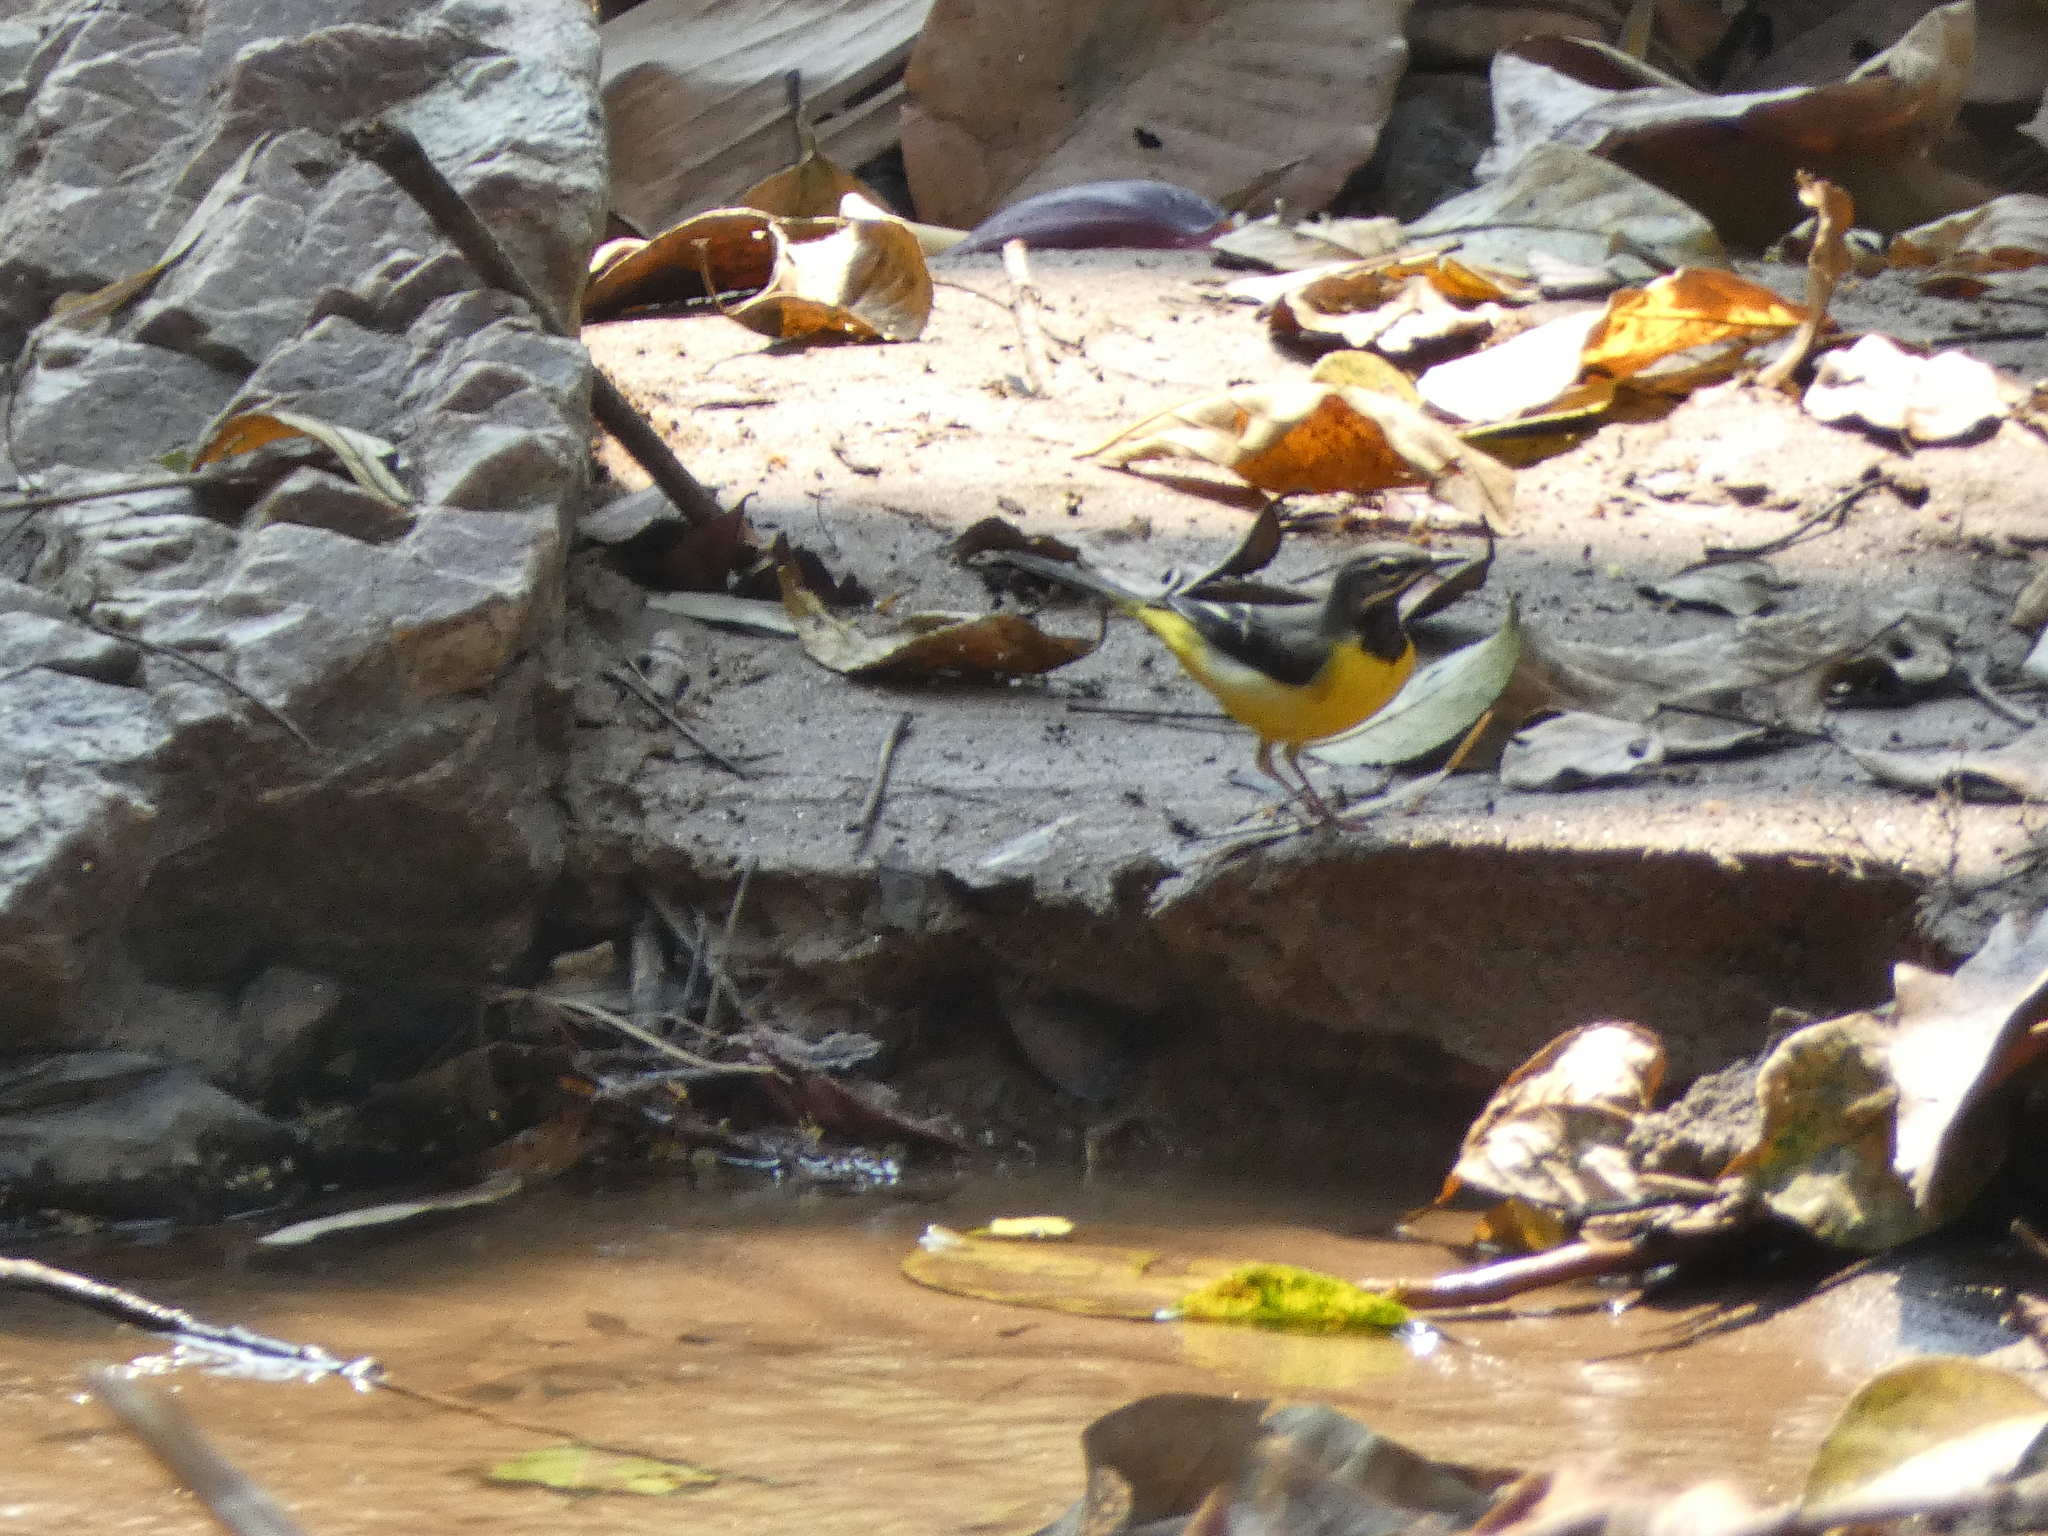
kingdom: Animalia
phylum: Chordata
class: Aves
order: Passeriformes
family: Motacillidae
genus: Motacilla
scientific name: Motacilla cinerea
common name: Grey wagtail
